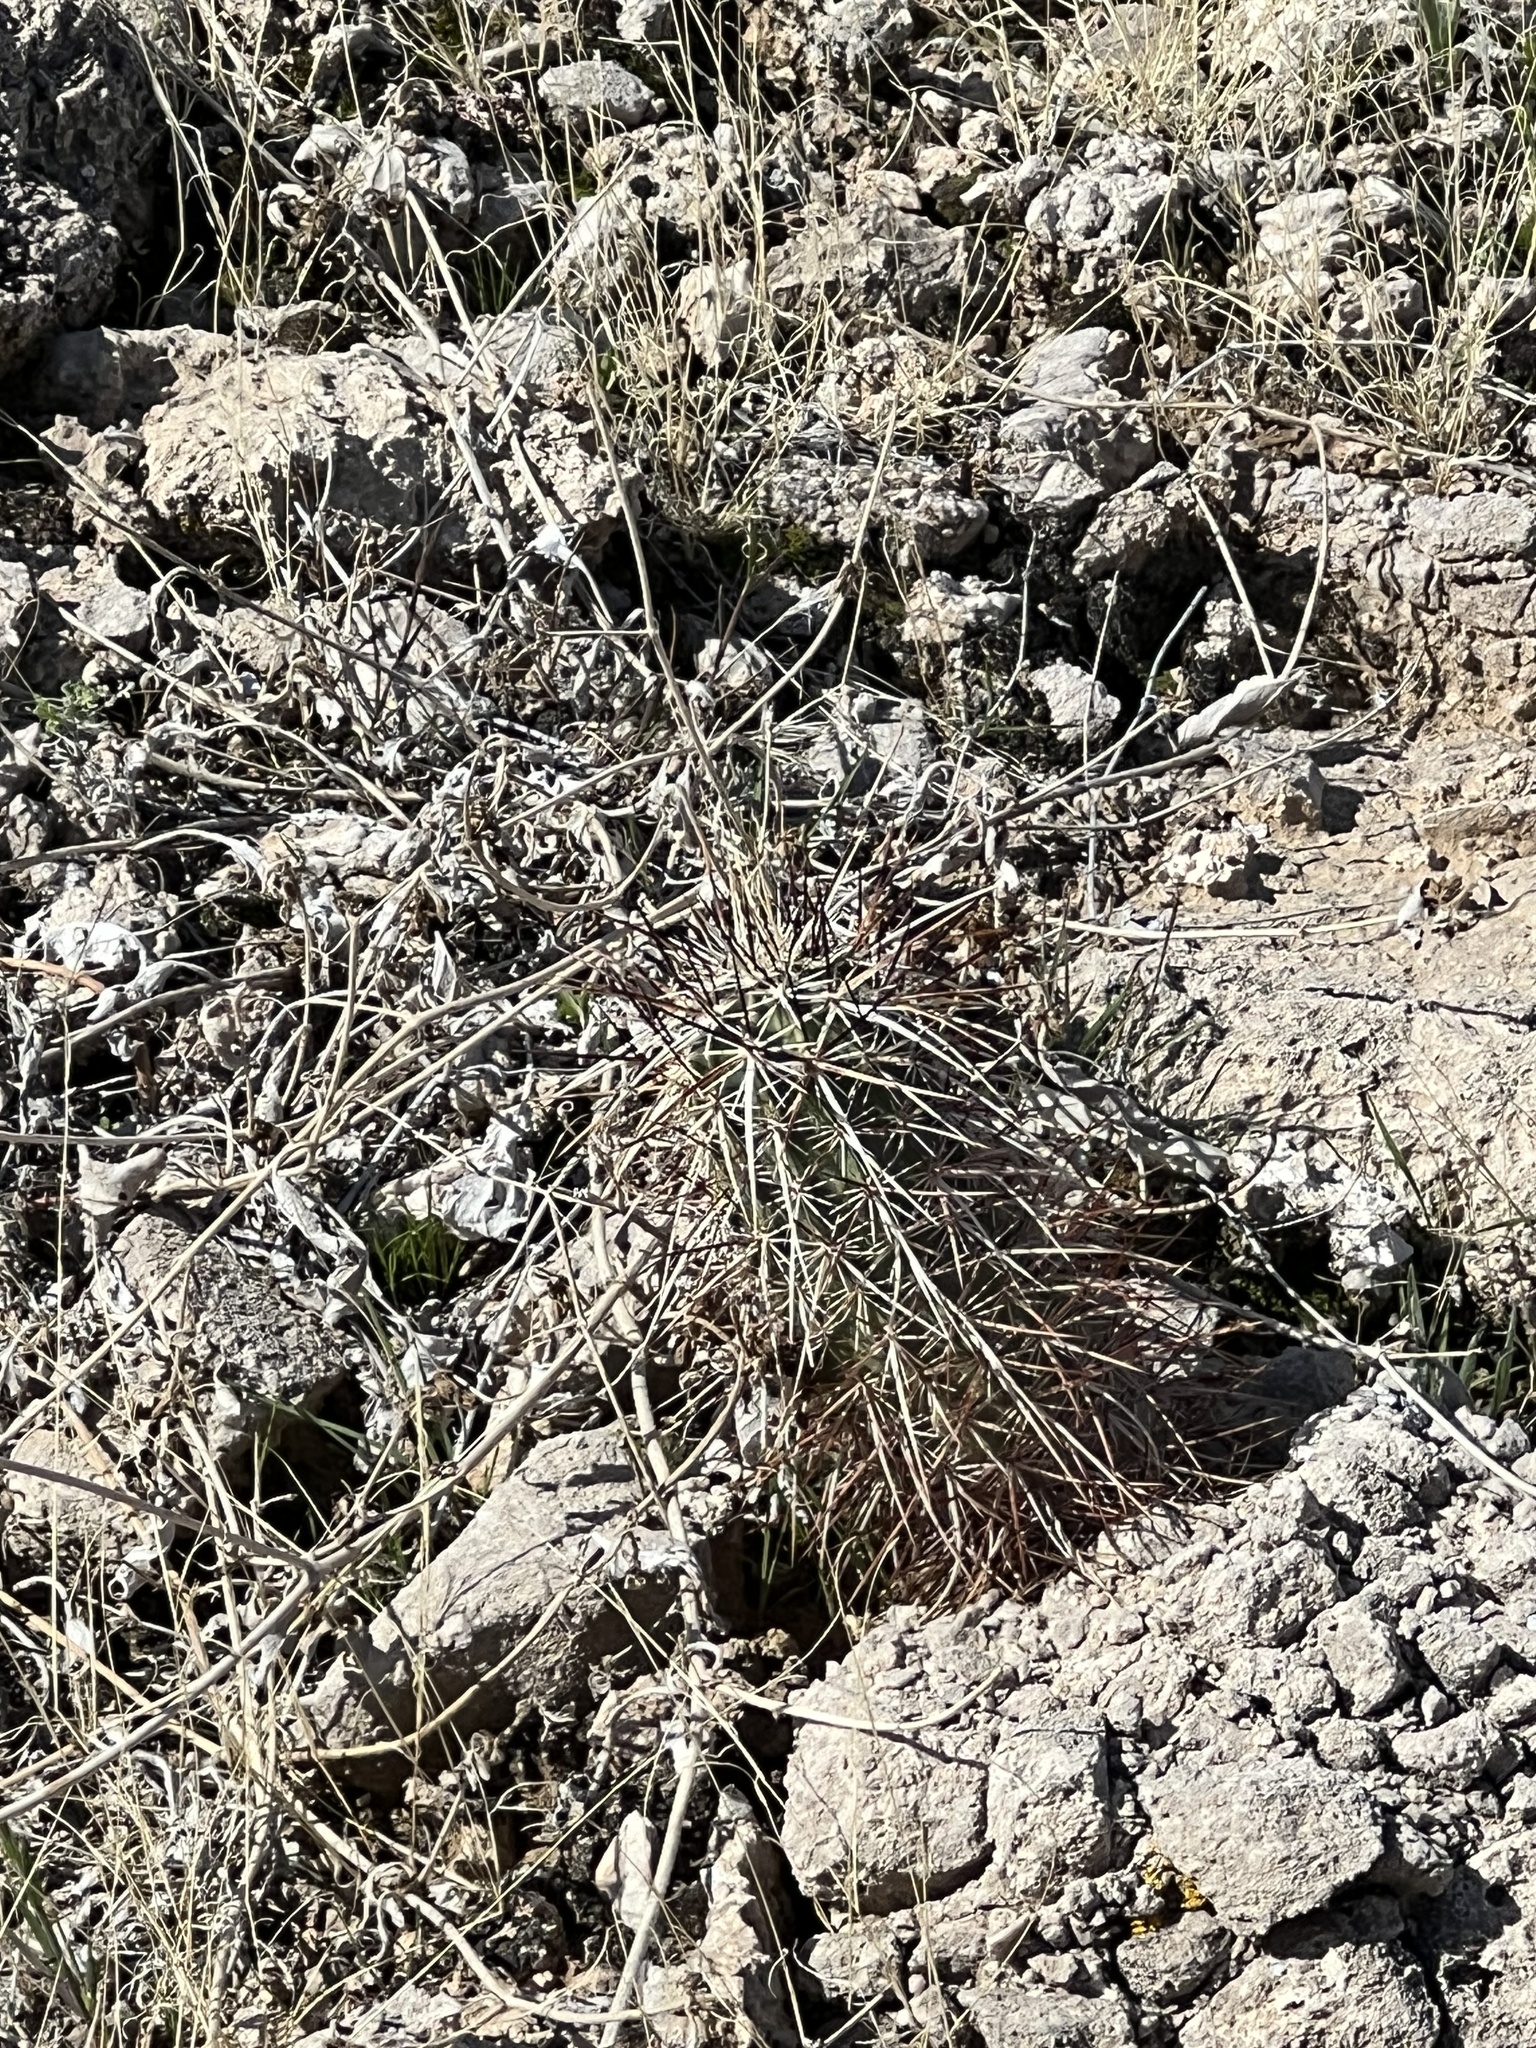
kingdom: Plantae
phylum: Tracheophyta
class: Magnoliopsida
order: Caryophyllales
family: Cactaceae
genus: Echinocereus
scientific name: Echinocereus engelmannii
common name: Engelmann's hedgehog cactus
